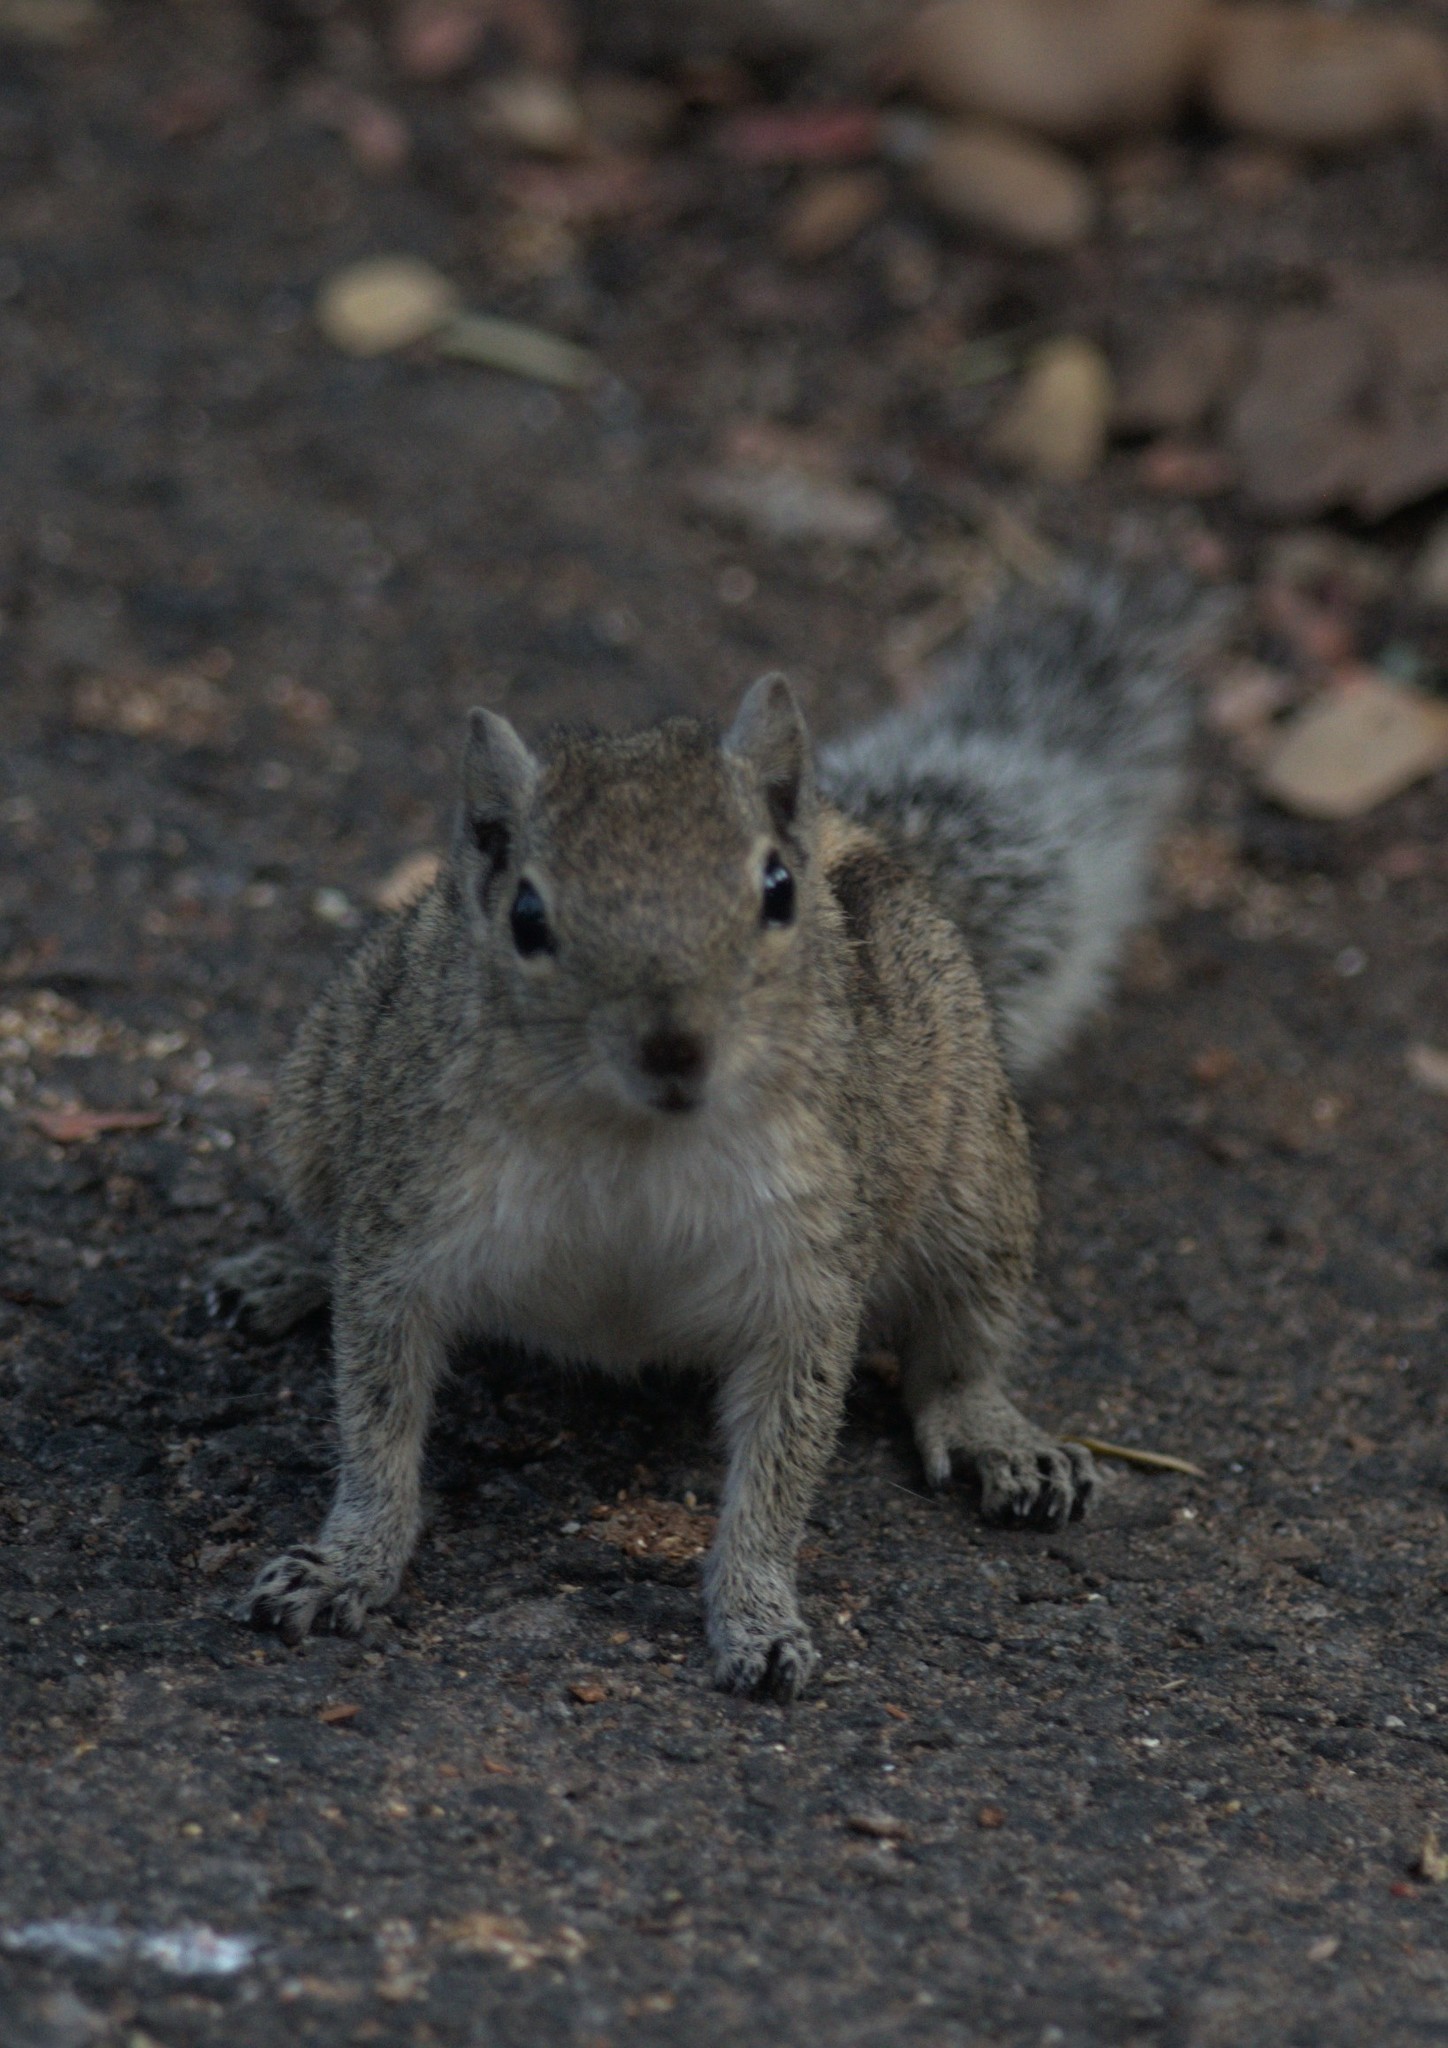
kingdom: Animalia
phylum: Chordata
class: Mammalia
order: Rodentia
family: Sciuridae
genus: Funambulus
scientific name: Funambulus palmarum
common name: Indian palm squirrel
